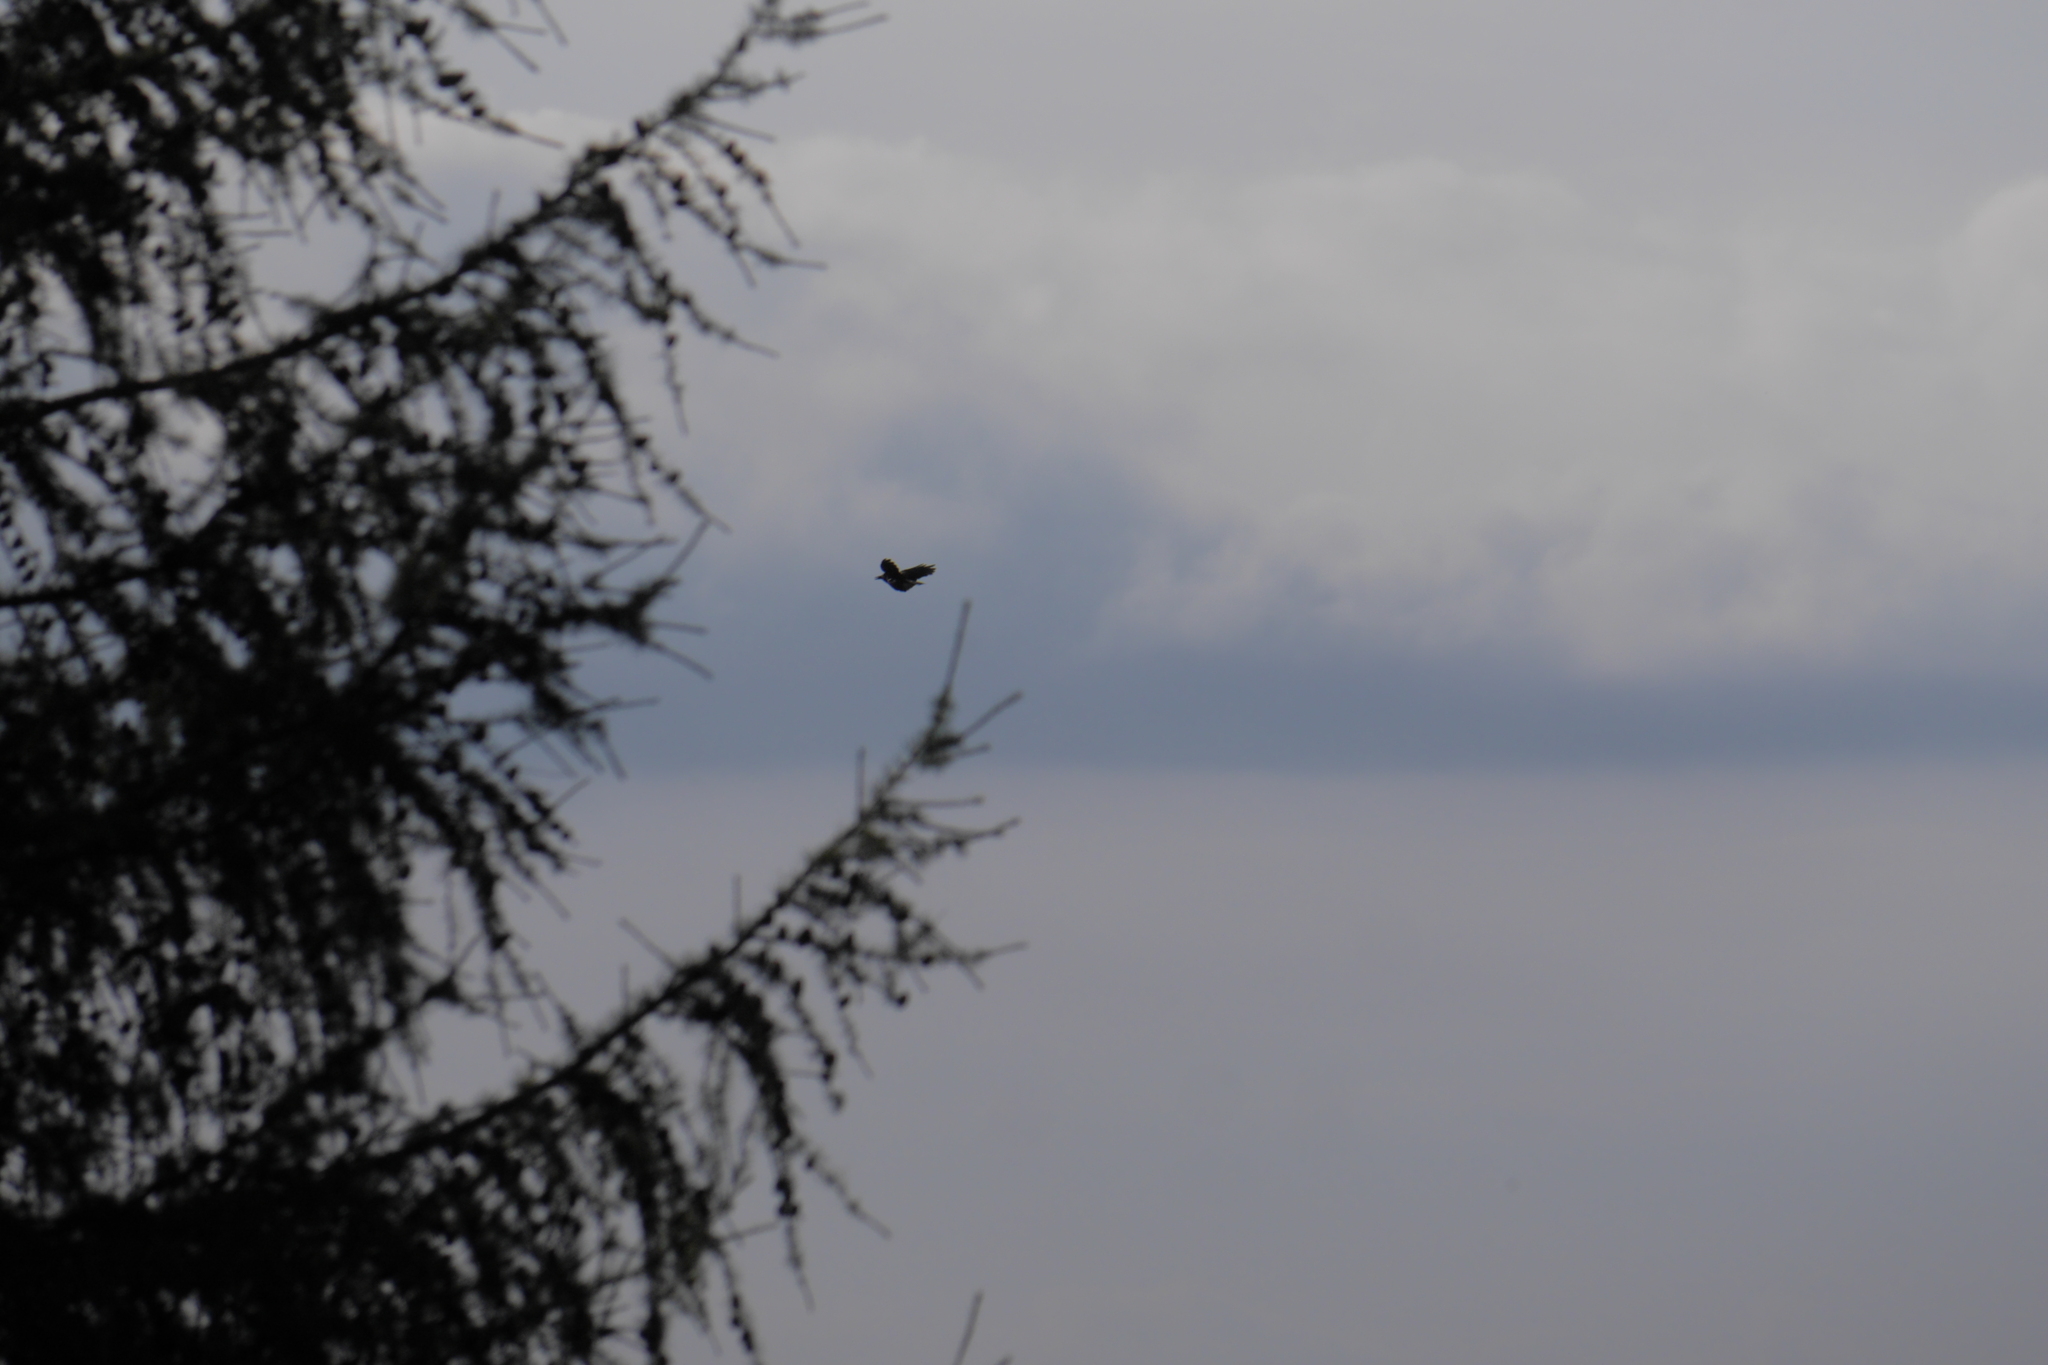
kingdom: Animalia
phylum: Chordata
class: Aves
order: Passeriformes
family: Corvidae
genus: Nucifraga
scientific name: Nucifraga caryocatactes
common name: Spotted nutcracker
